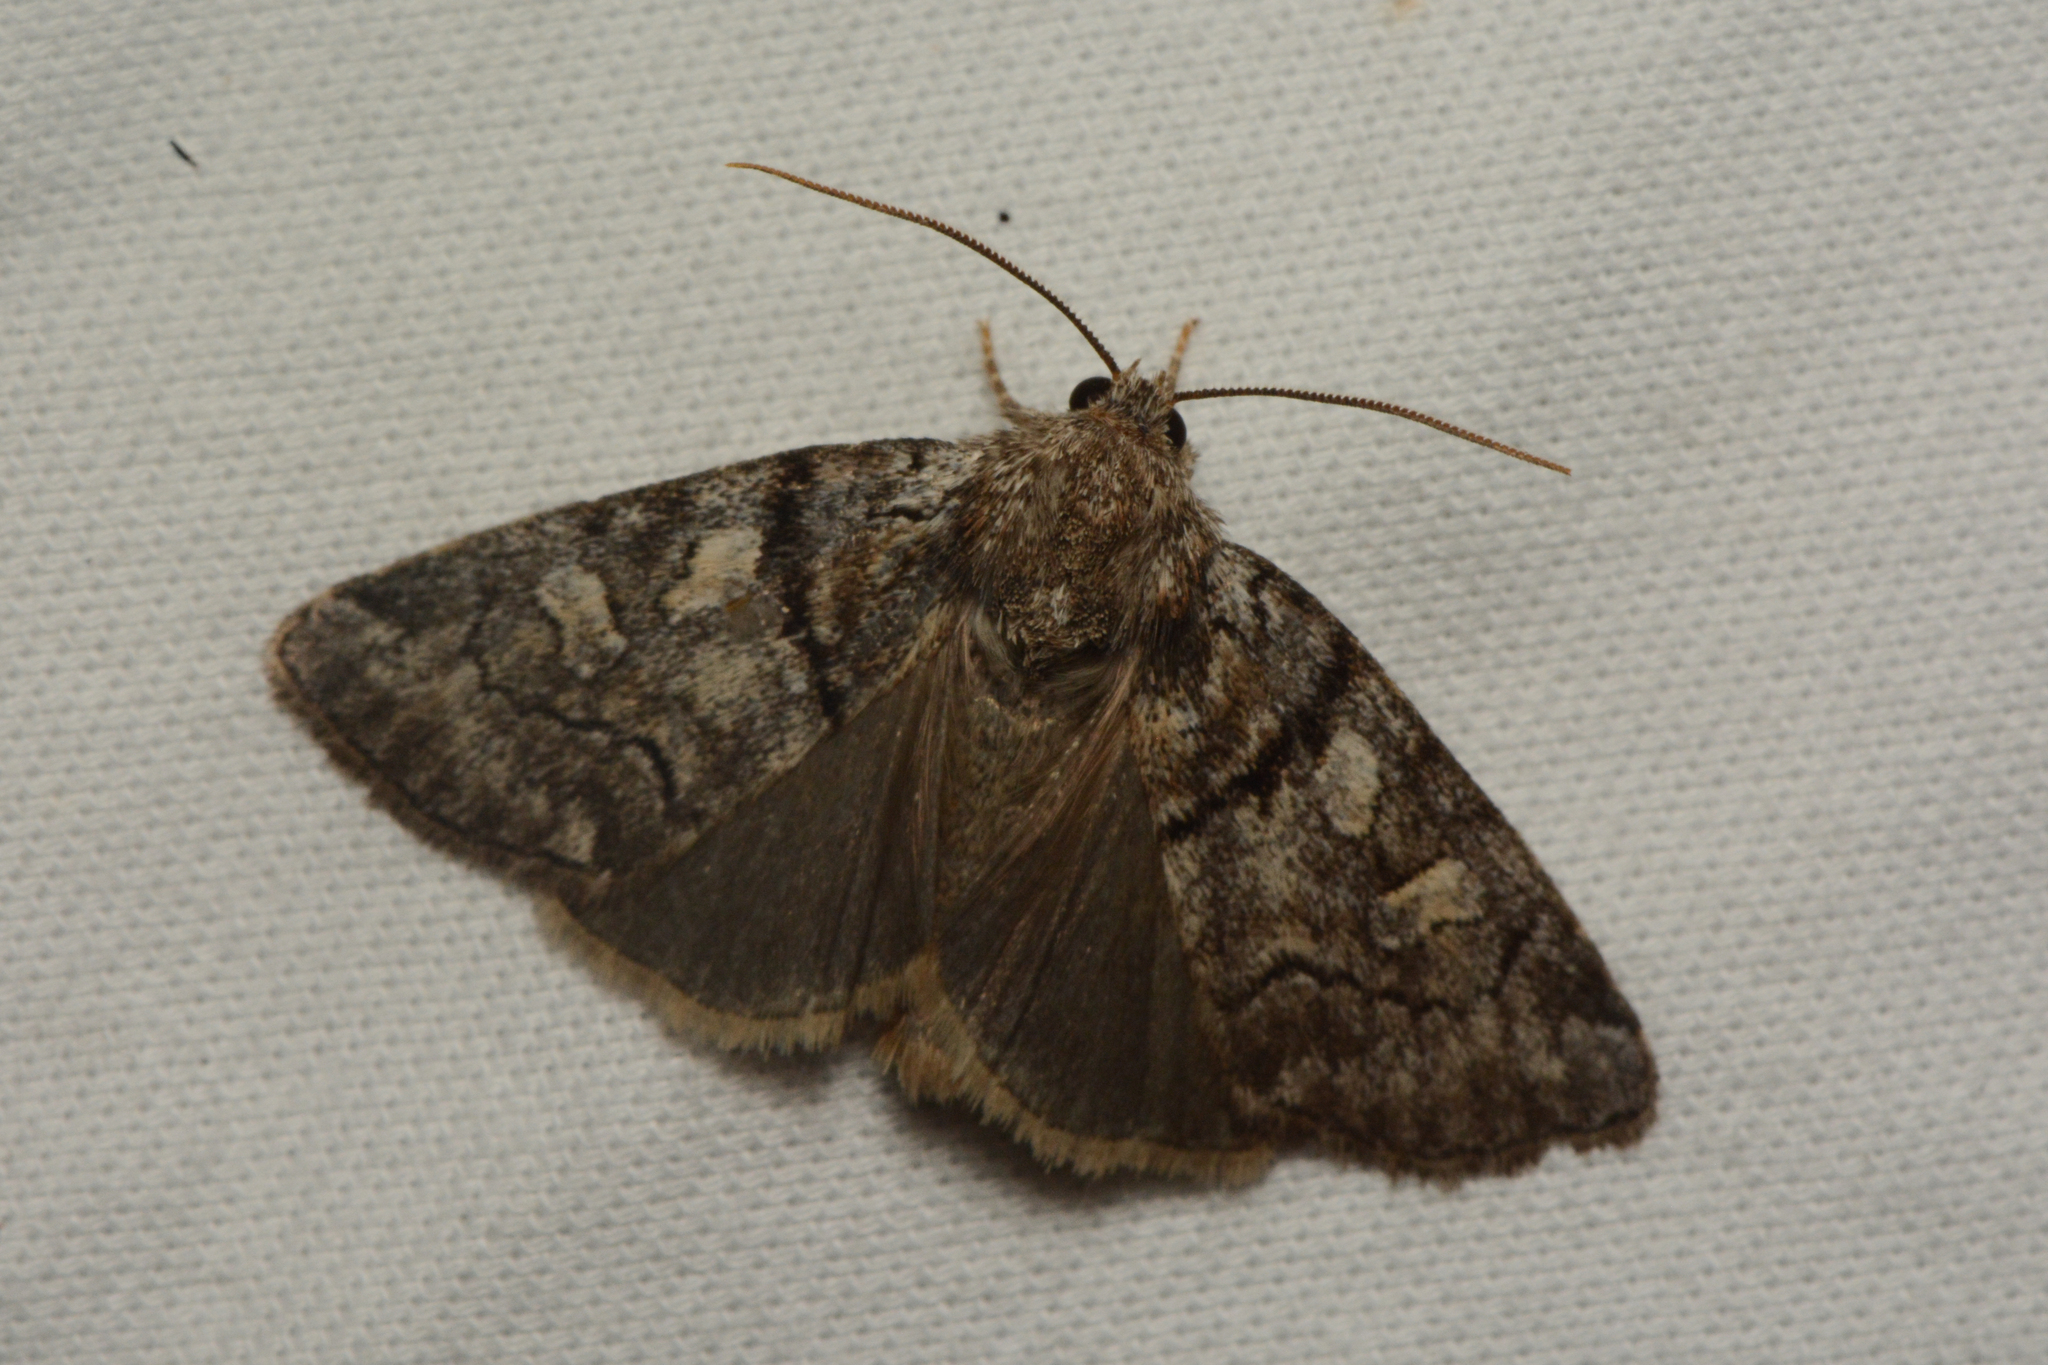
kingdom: Animalia
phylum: Arthropoda
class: Insecta
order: Lepidoptera
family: Noctuidae
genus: Cosmia
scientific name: Cosmia praeacuta
